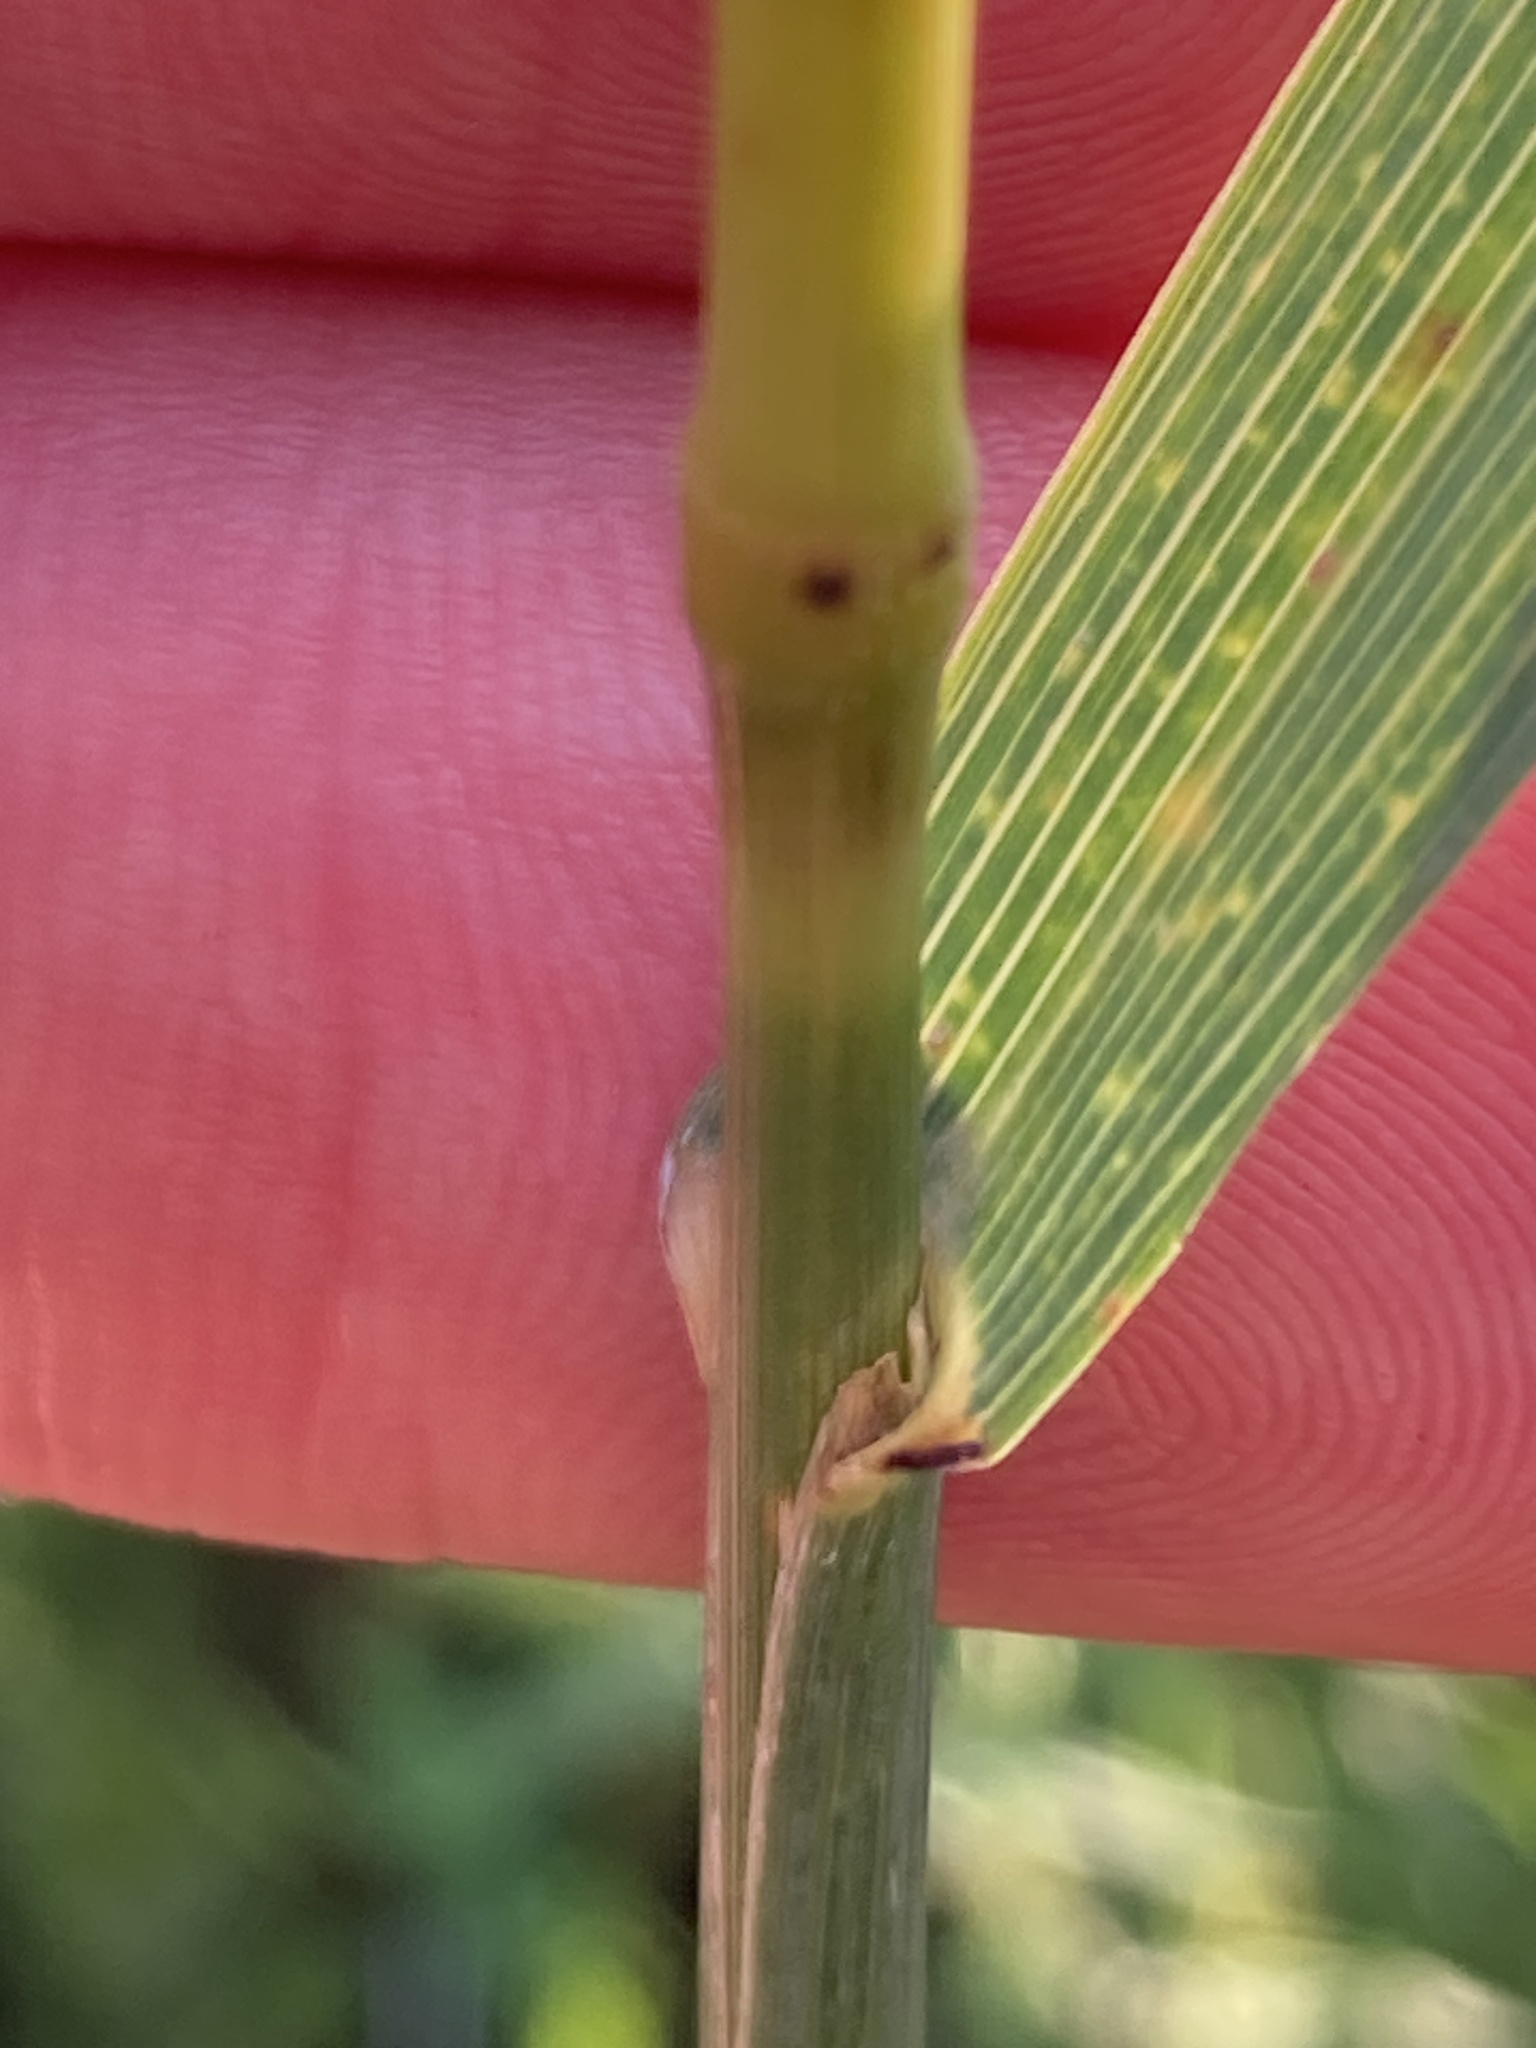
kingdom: Plantae
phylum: Tracheophyta
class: Liliopsida
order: Poales
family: Poaceae
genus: Bromus
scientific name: Bromus inermis
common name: Smooth brome
